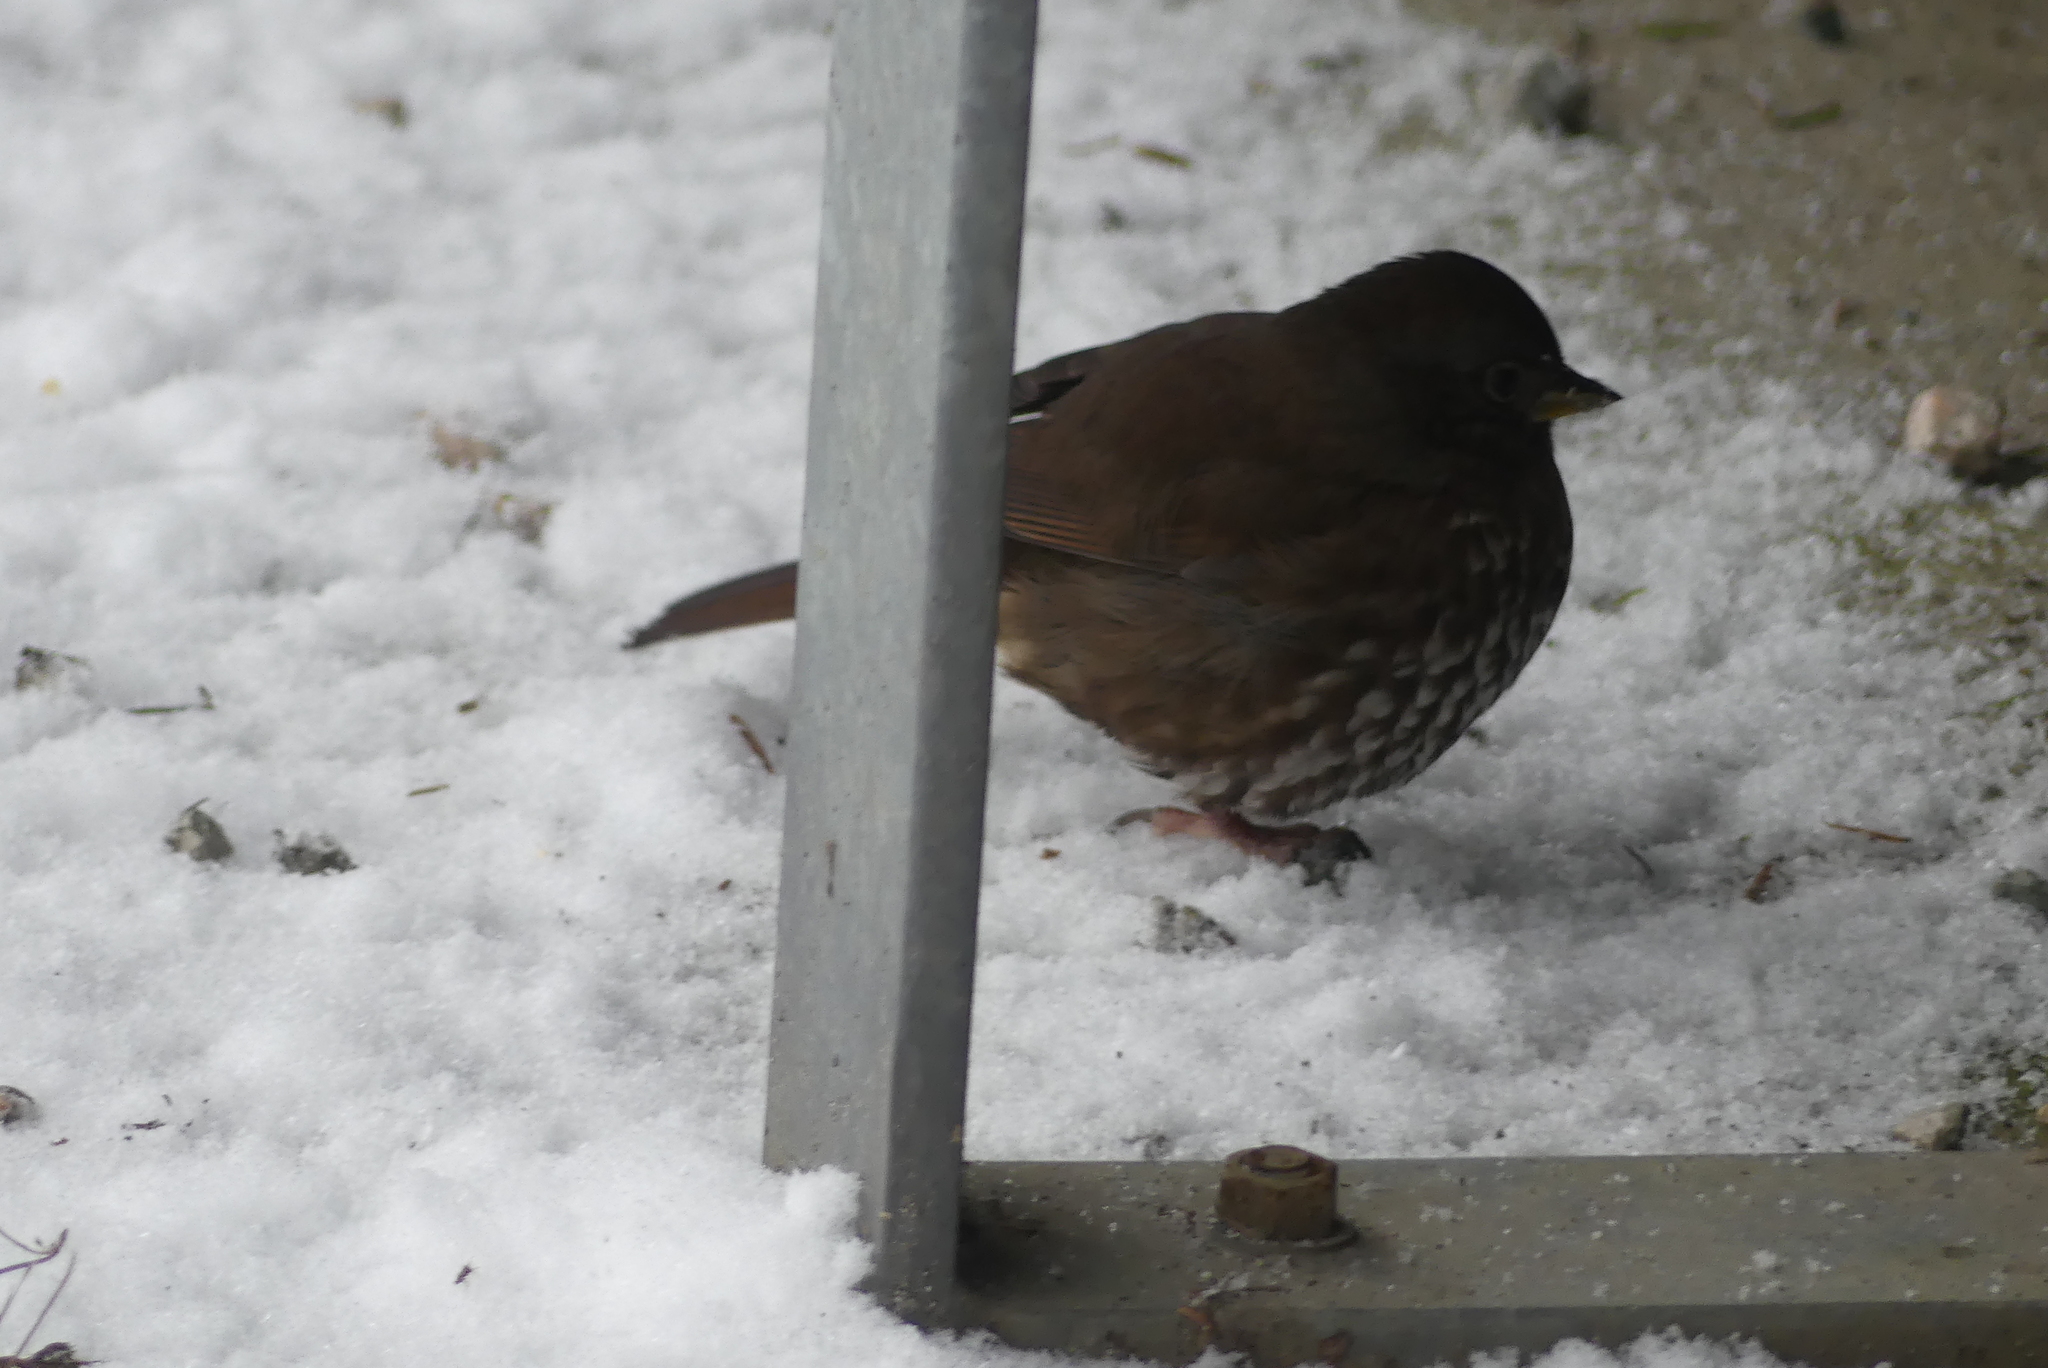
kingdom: Animalia
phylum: Chordata
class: Aves
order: Passeriformes
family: Passerellidae
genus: Passerella
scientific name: Passerella iliaca
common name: Fox sparrow
